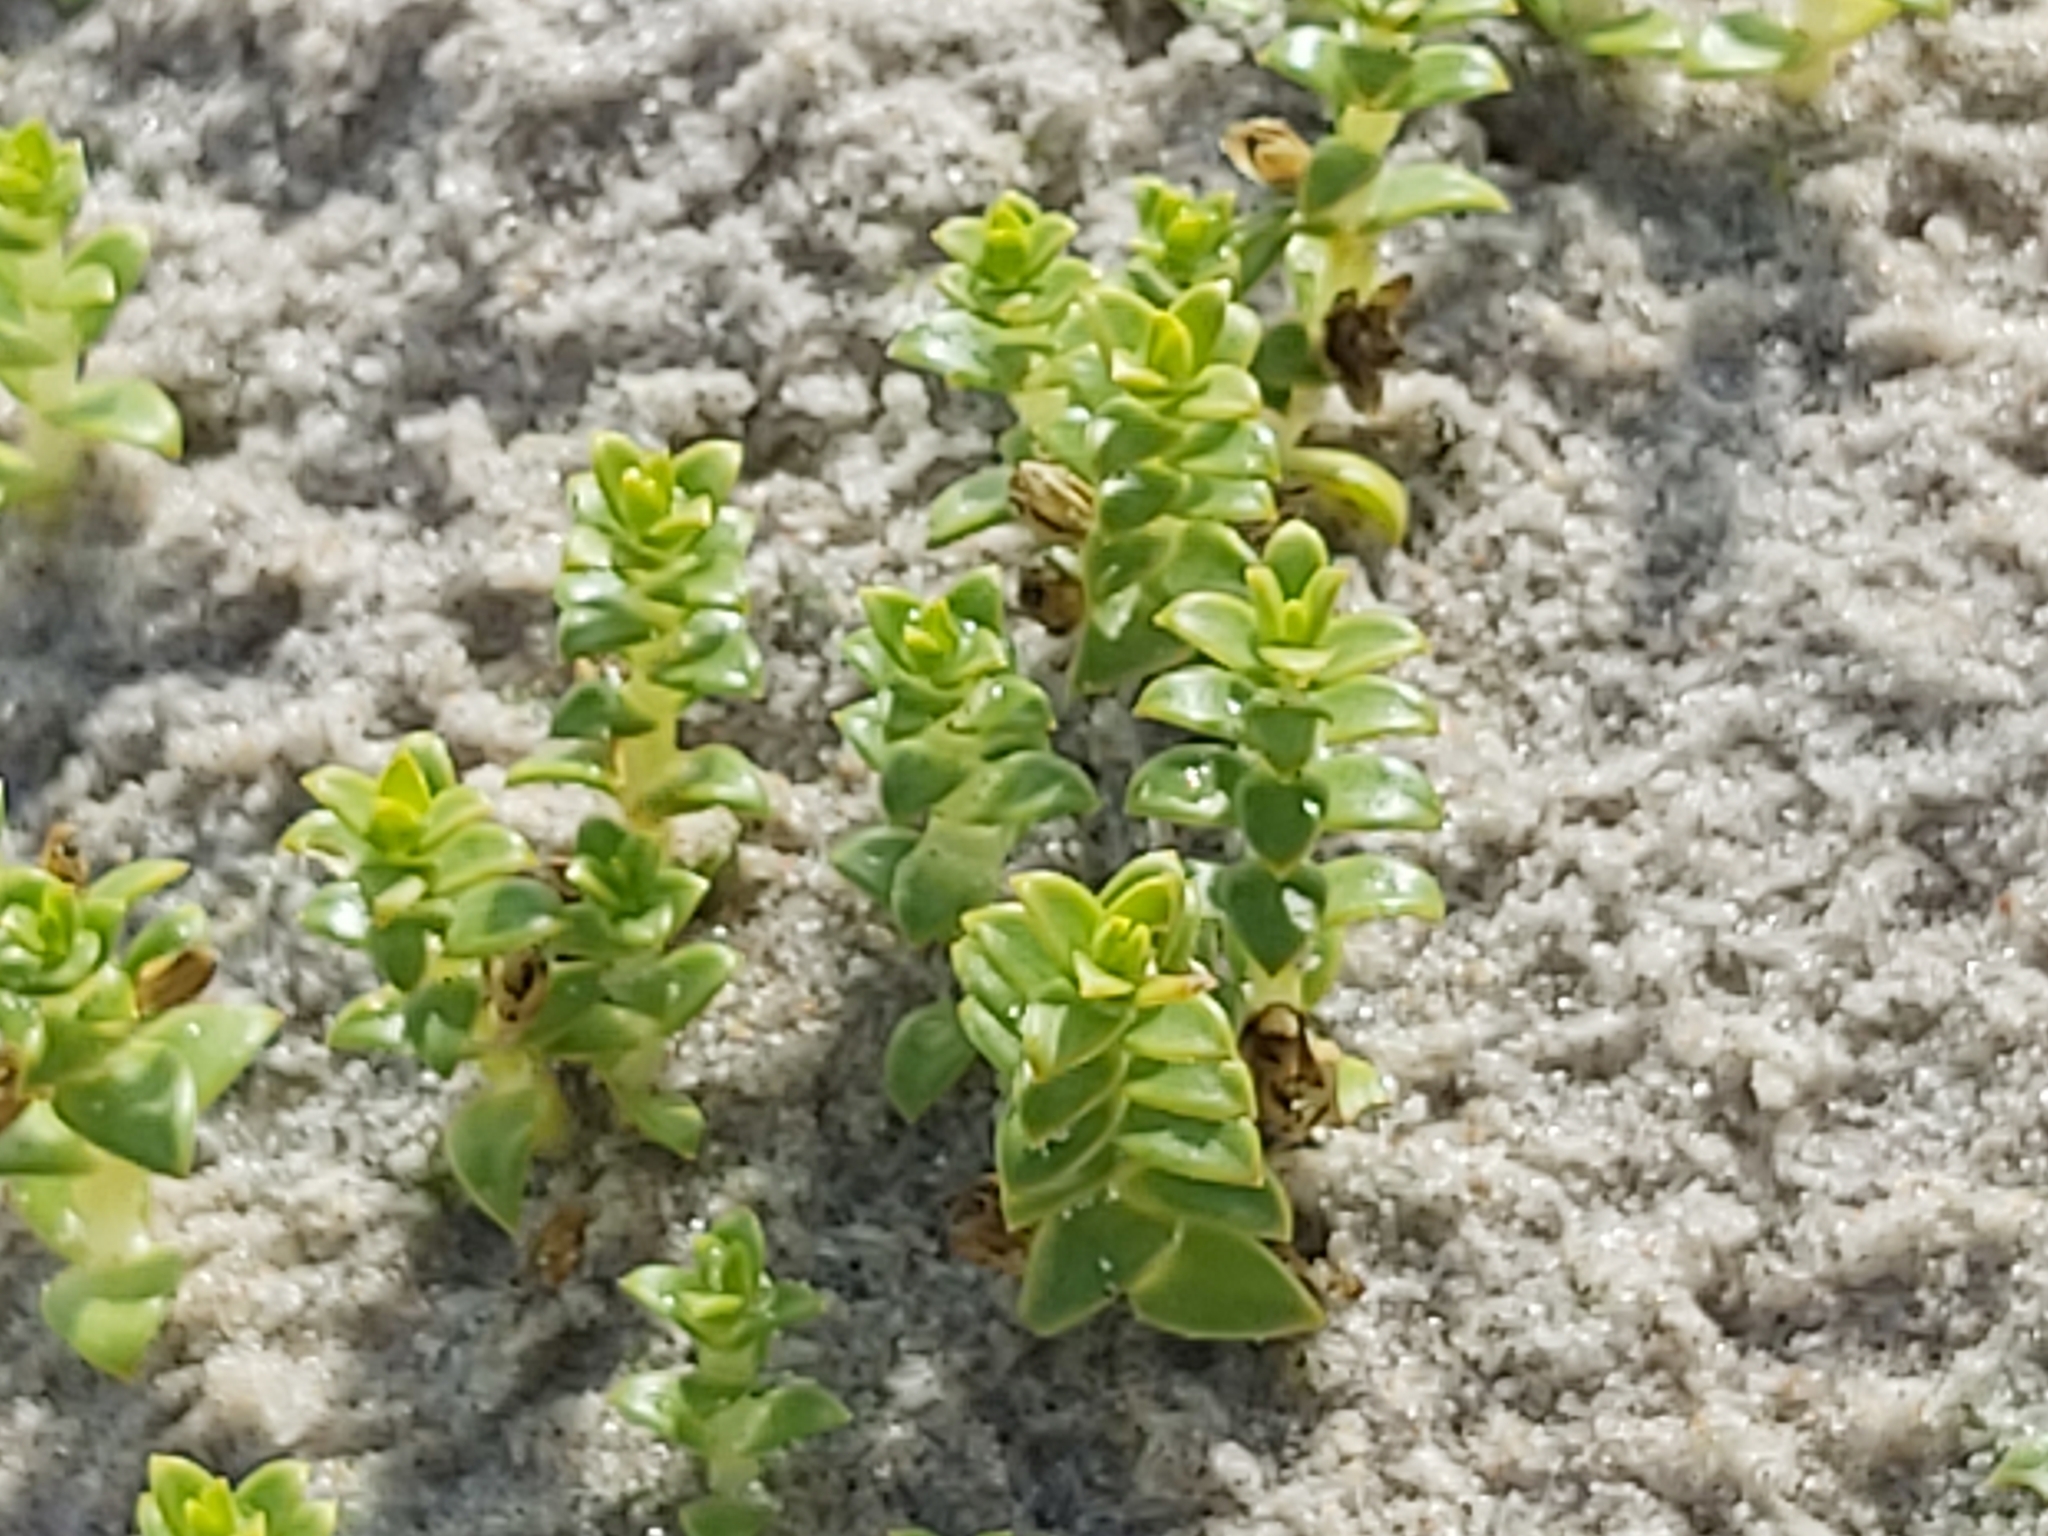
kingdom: Plantae
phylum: Tracheophyta
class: Magnoliopsida
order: Caryophyllales
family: Caryophyllaceae
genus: Honckenya
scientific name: Honckenya peploides
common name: Sea sandwort
